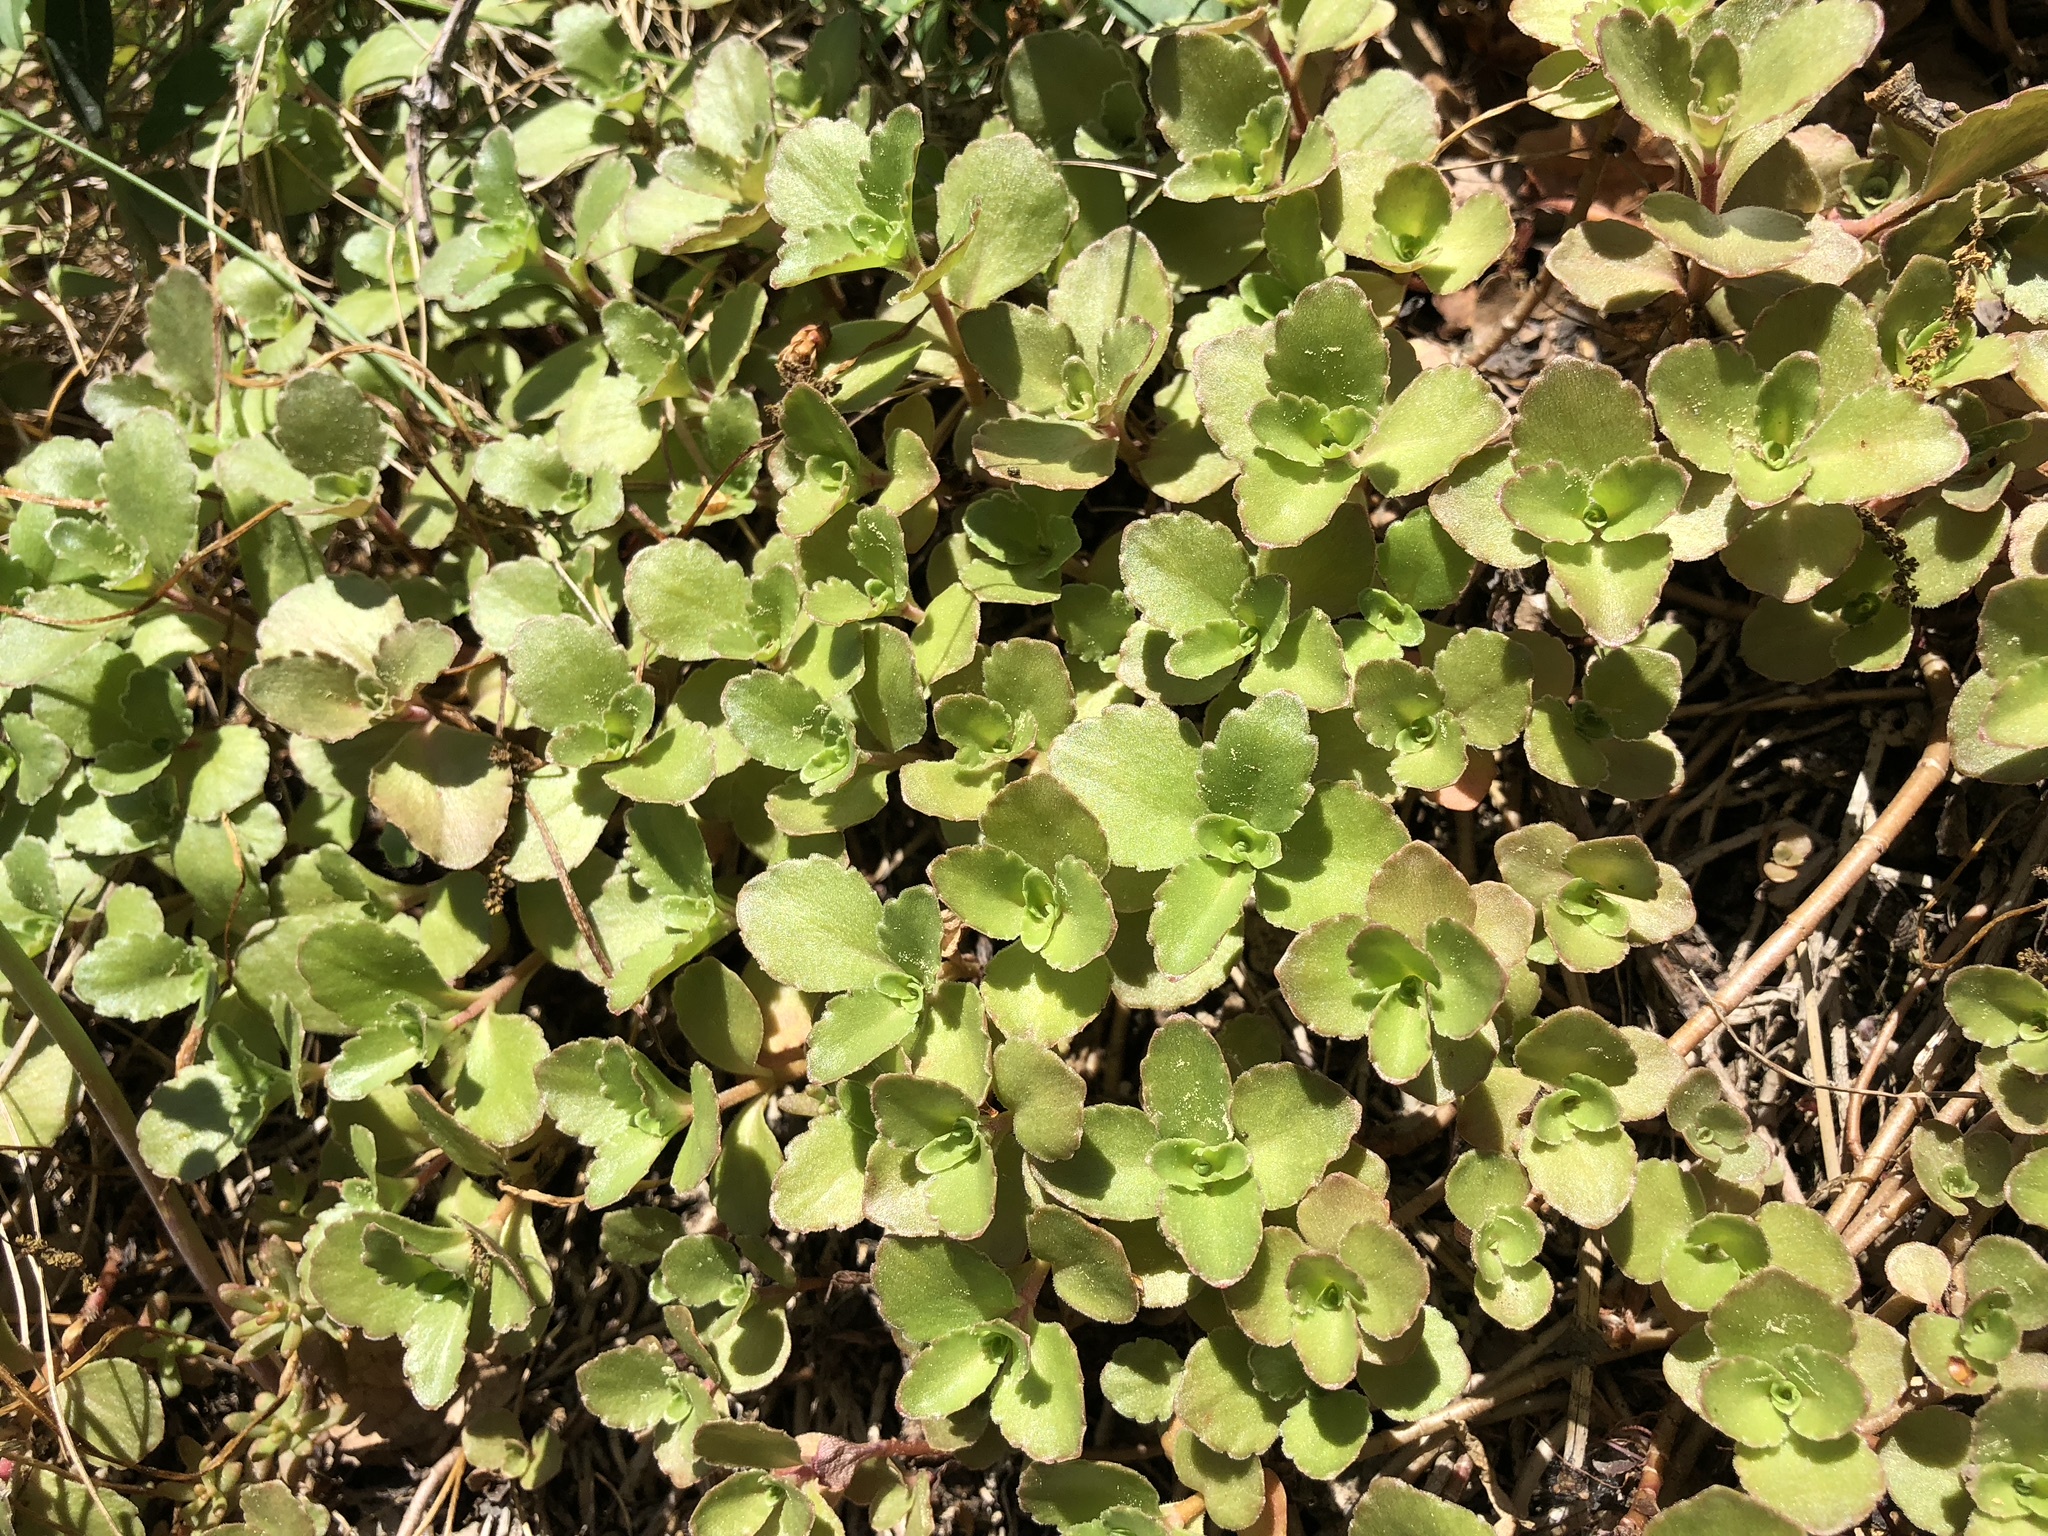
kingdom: Plantae
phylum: Tracheophyta
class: Magnoliopsida
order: Saxifragales
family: Crassulaceae
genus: Phedimus
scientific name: Phedimus spurius
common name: Caucasian stonecrop
